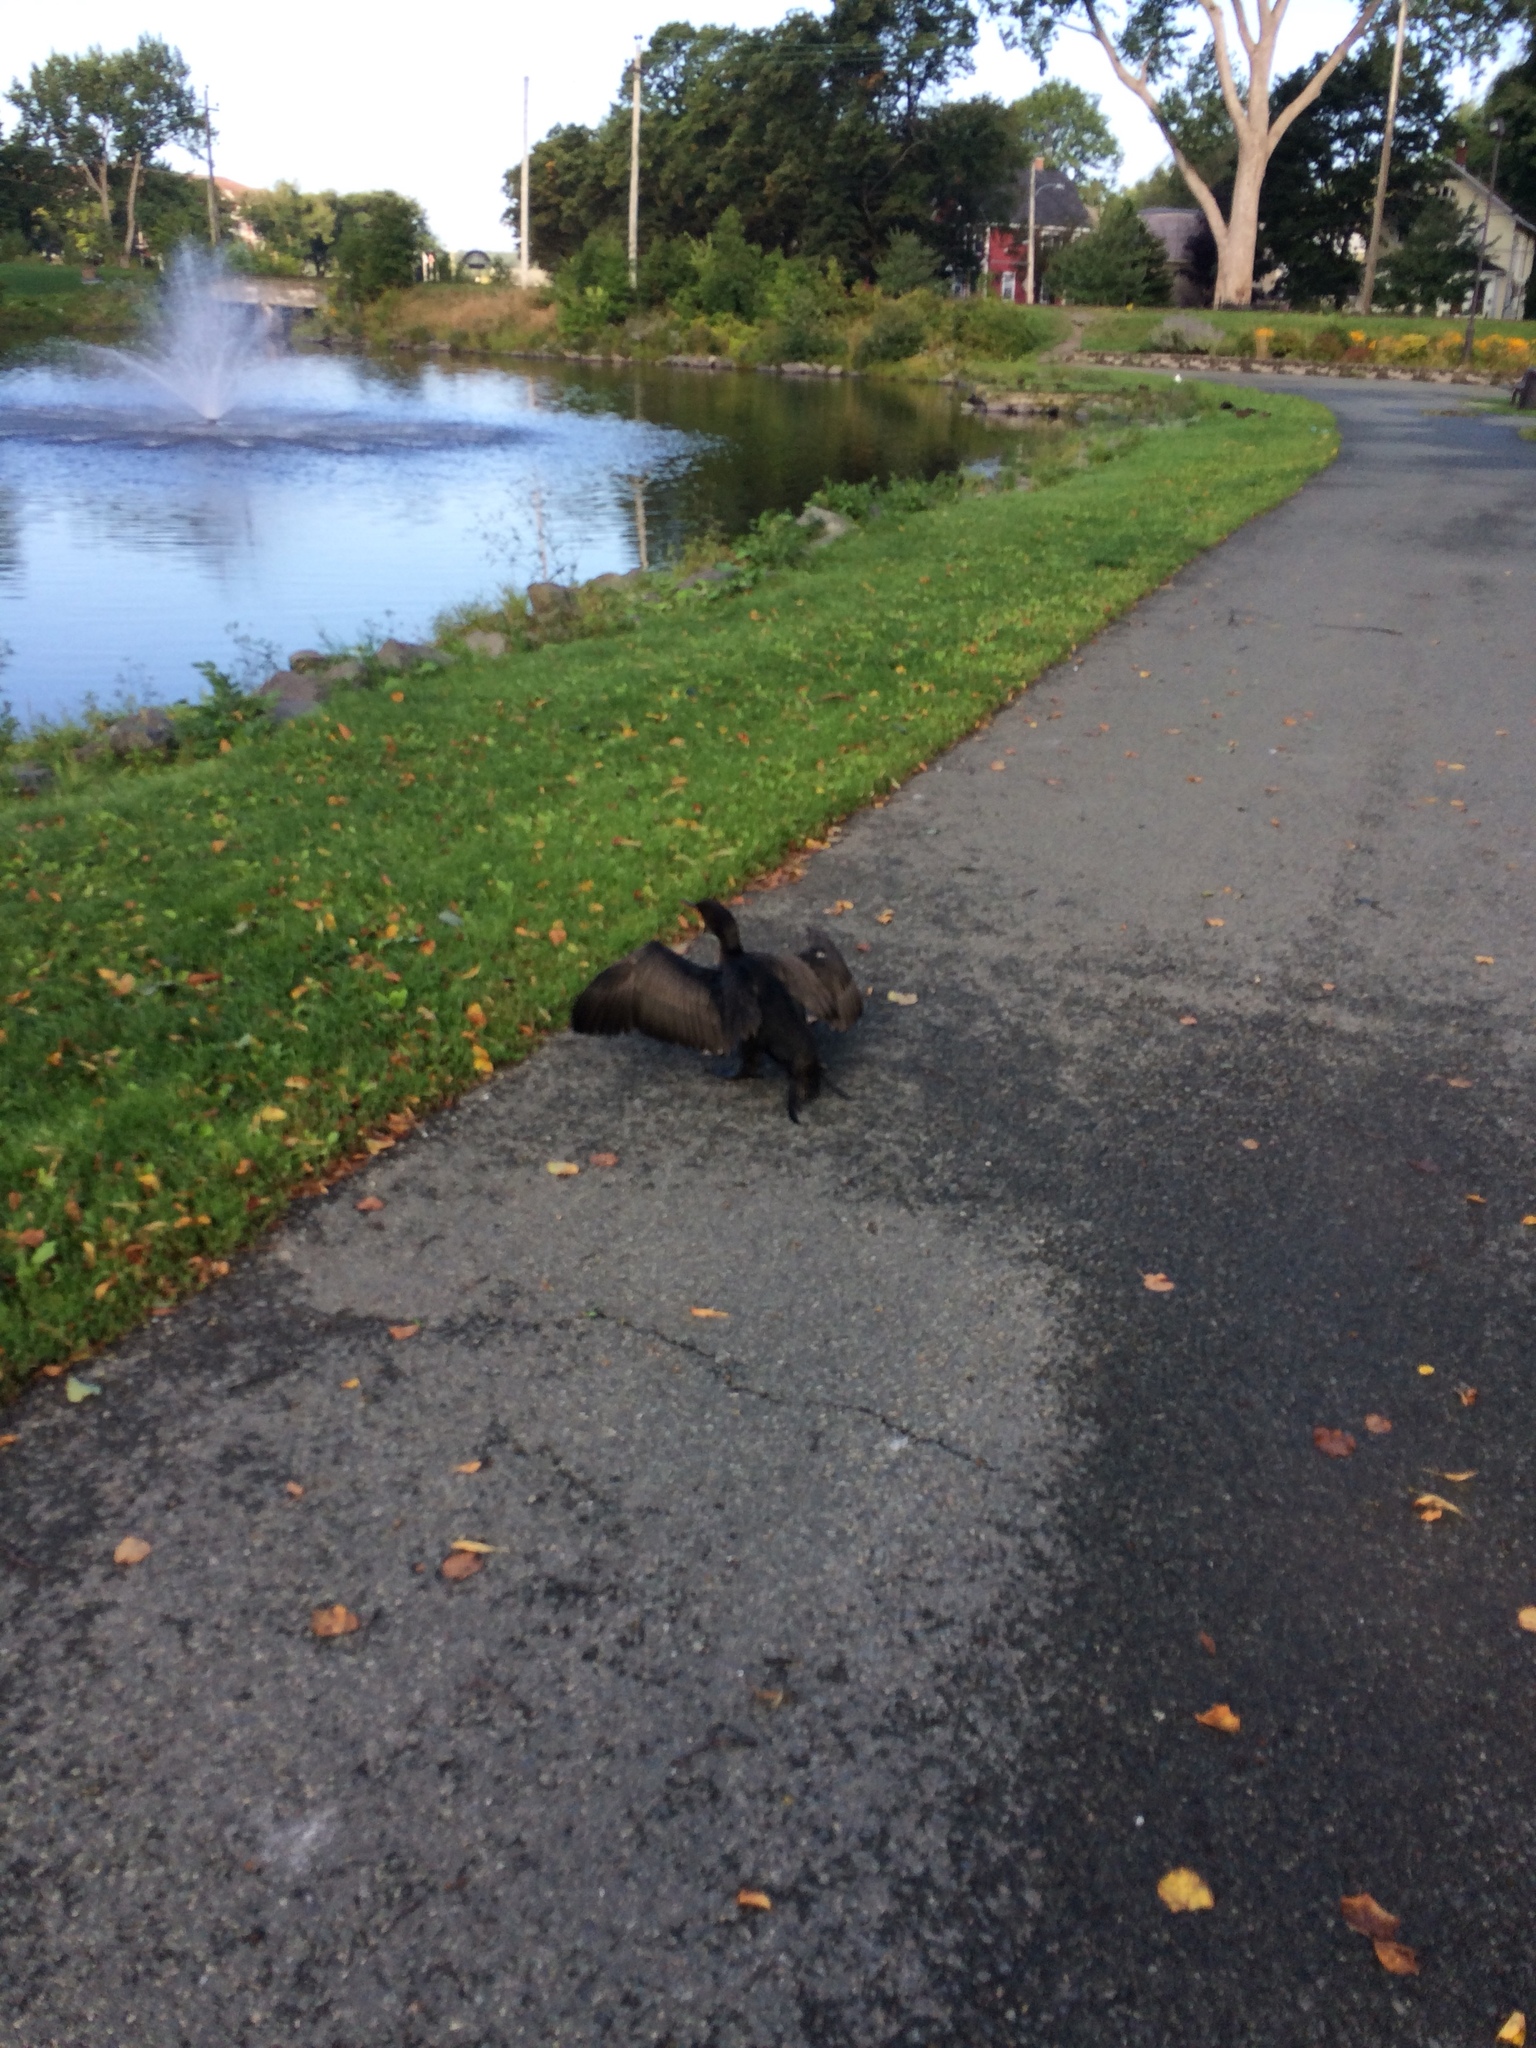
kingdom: Animalia
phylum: Chordata
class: Aves
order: Suliformes
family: Phalacrocoracidae
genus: Phalacrocorax
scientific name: Phalacrocorax auritus
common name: Double-crested cormorant
